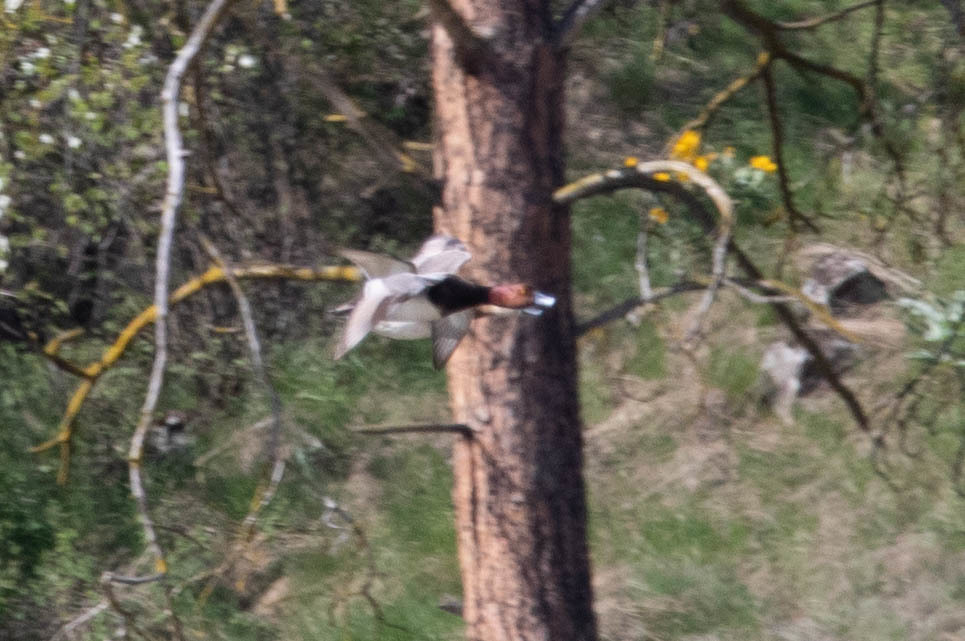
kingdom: Animalia
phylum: Chordata
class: Aves
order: Anseriformes
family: Anatidae
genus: Aythya
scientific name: Aythya americana
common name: Redhead
